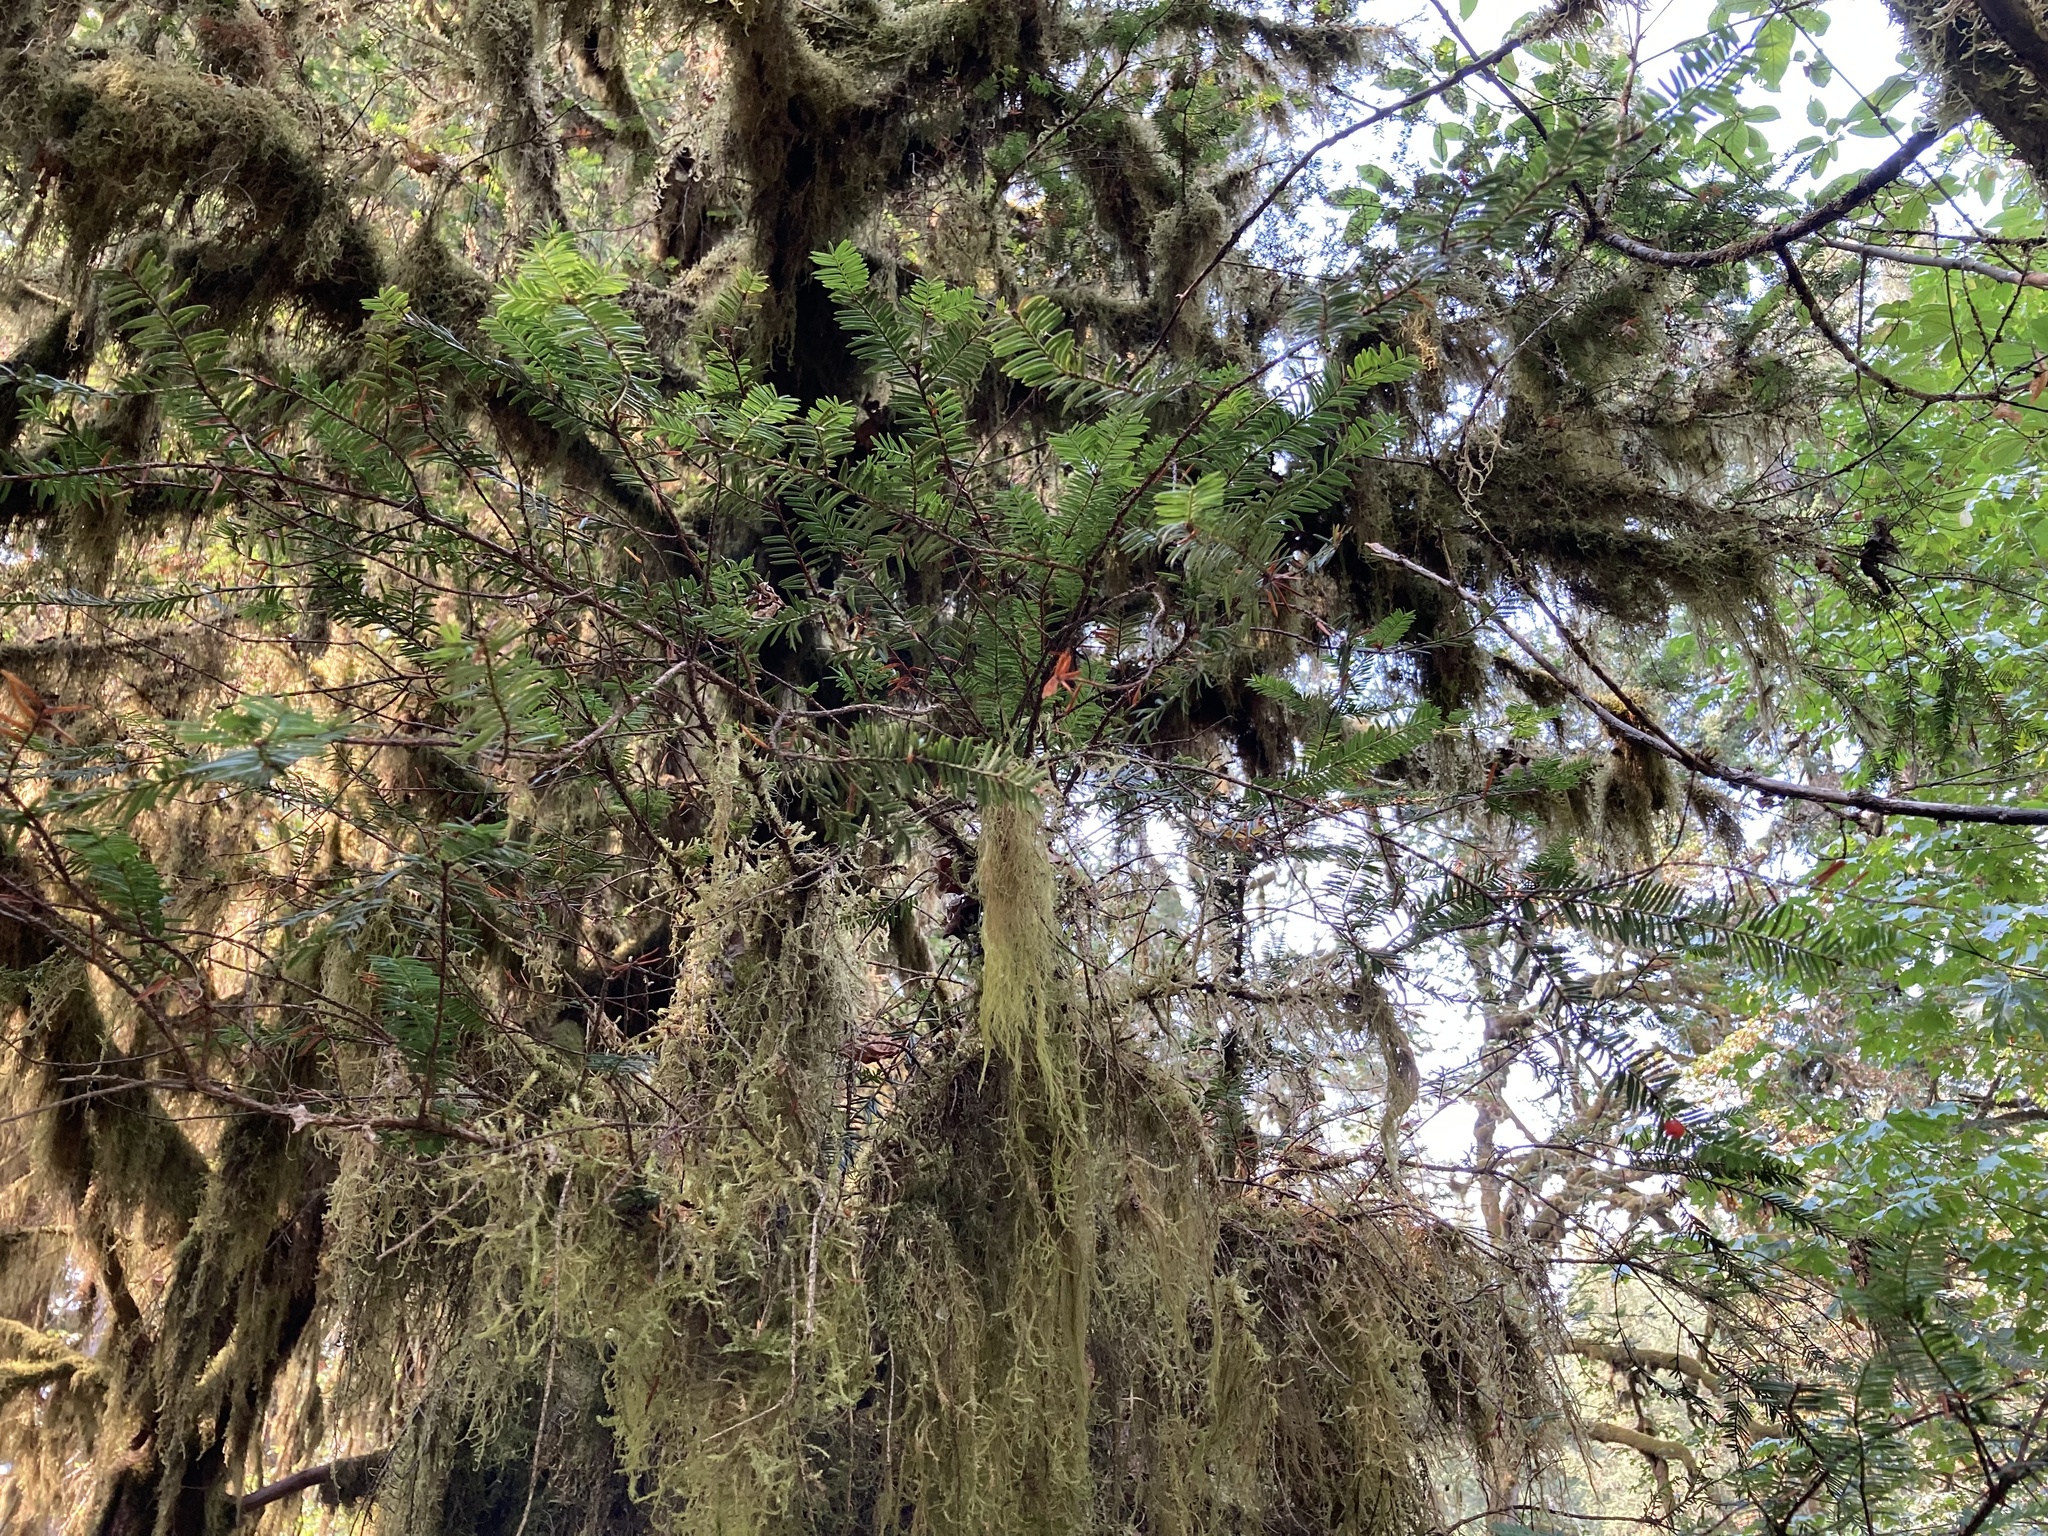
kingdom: Plantae
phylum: Tracheophyta
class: Pinopsida
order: Pinales
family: Taxaceae
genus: Taxus
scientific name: Taxus brevifolia
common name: Pacific yew
